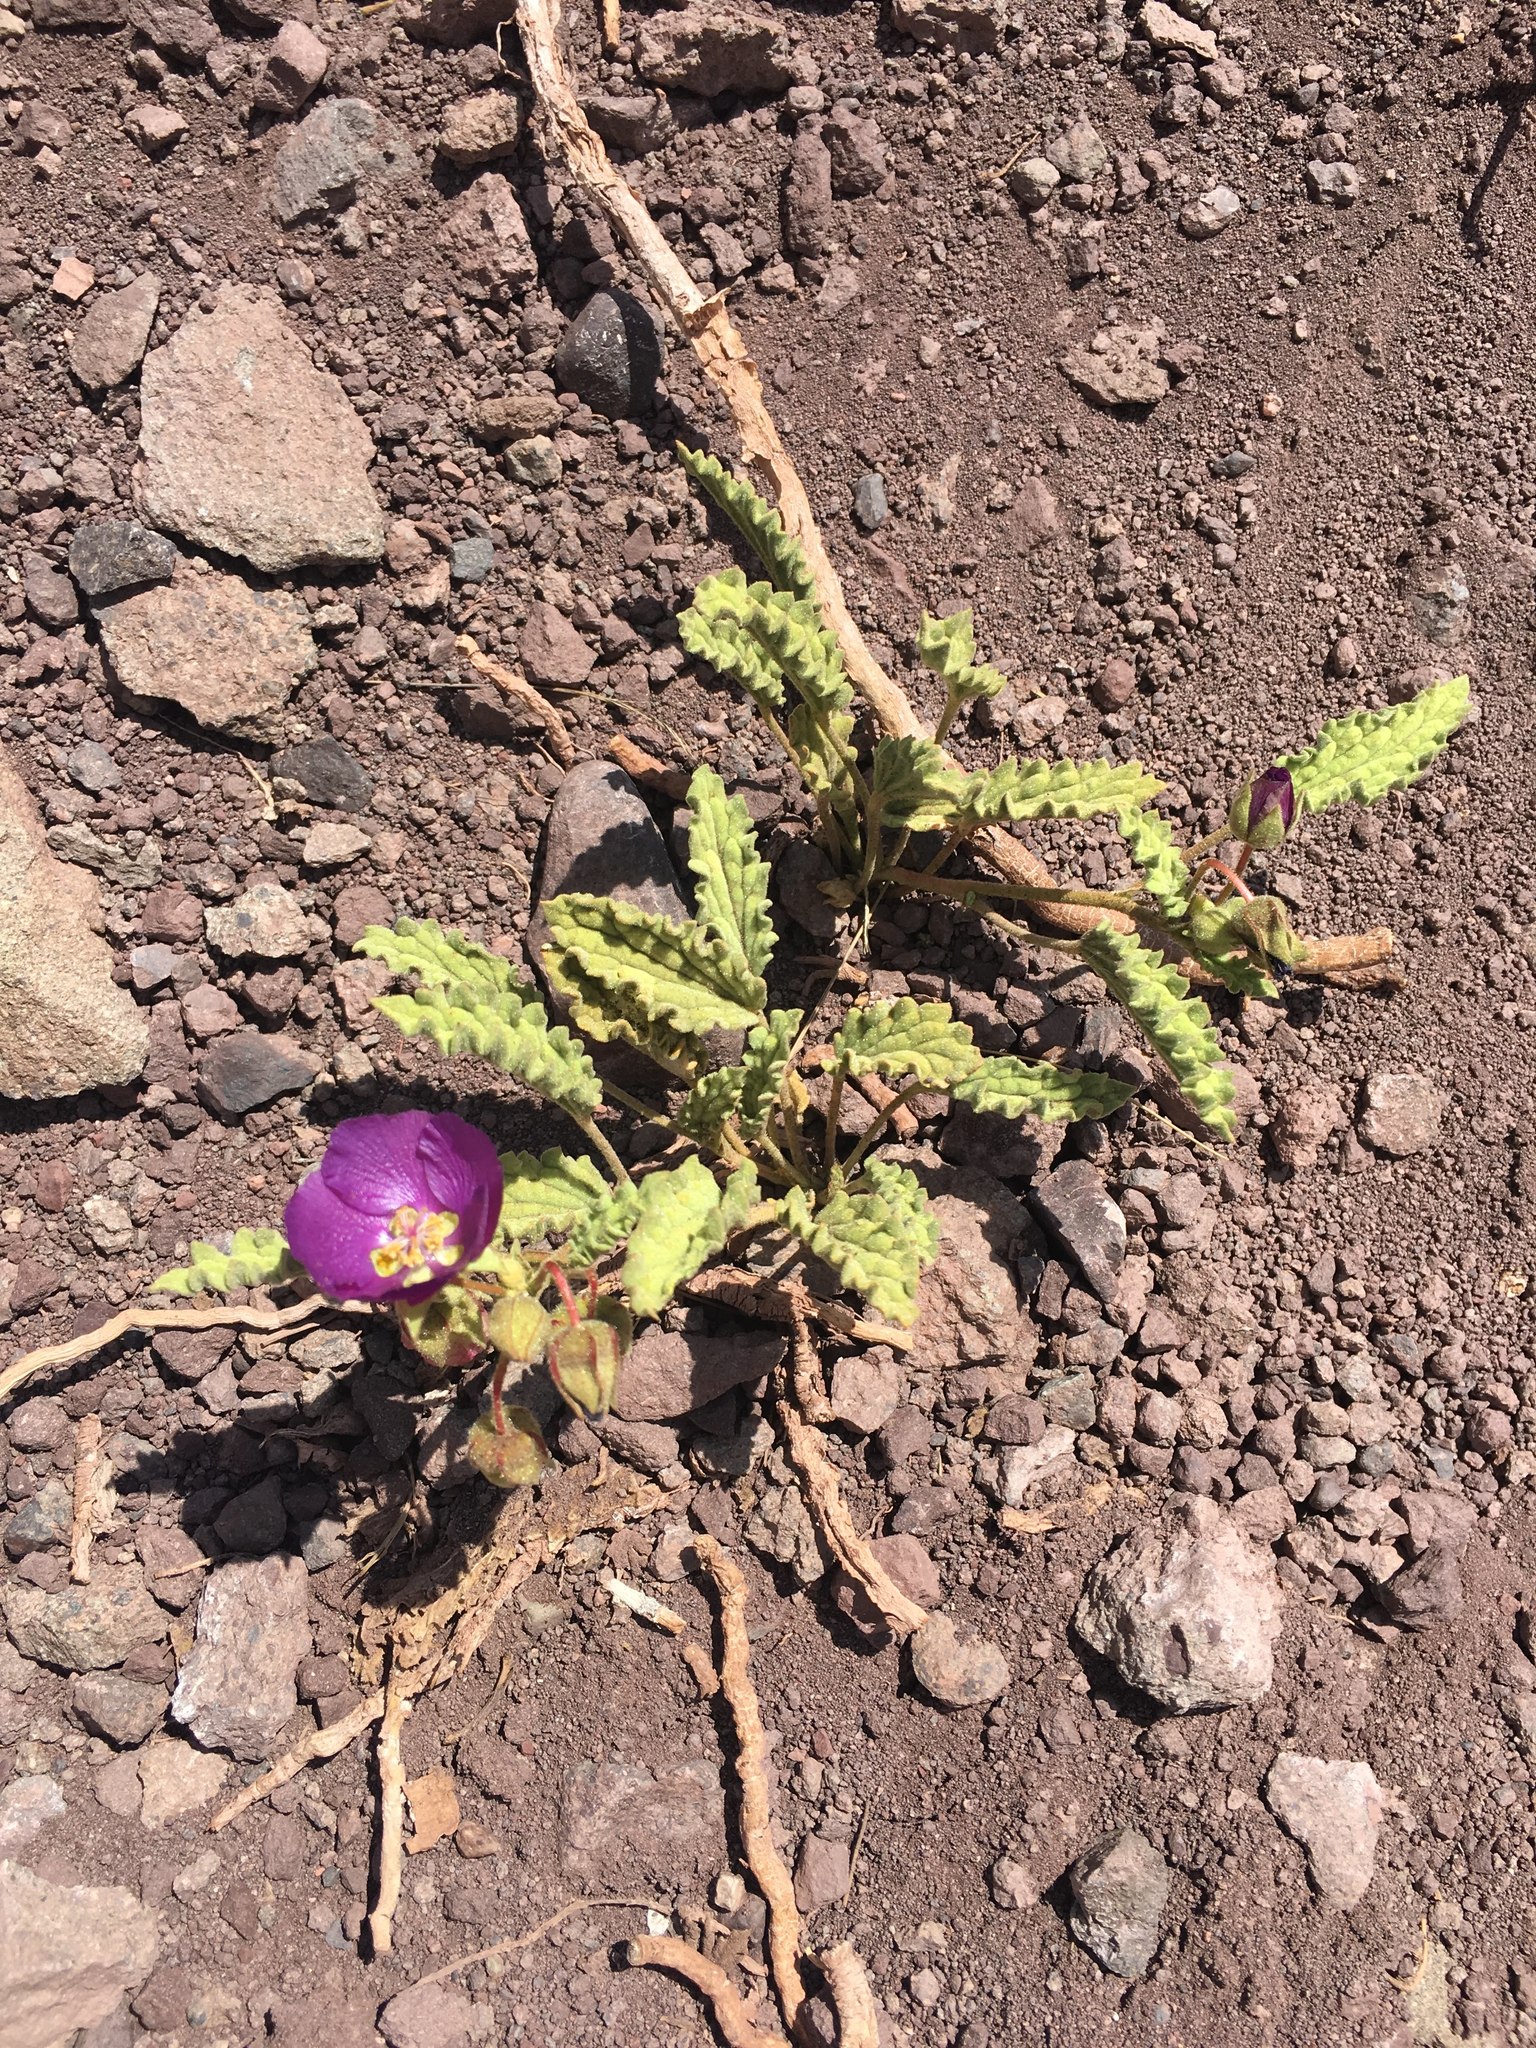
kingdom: Plantae
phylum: Tracheophyta
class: Magnoliopsida
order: Malvales
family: Malvaceae
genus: Cristaria
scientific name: Cristaria andicola
